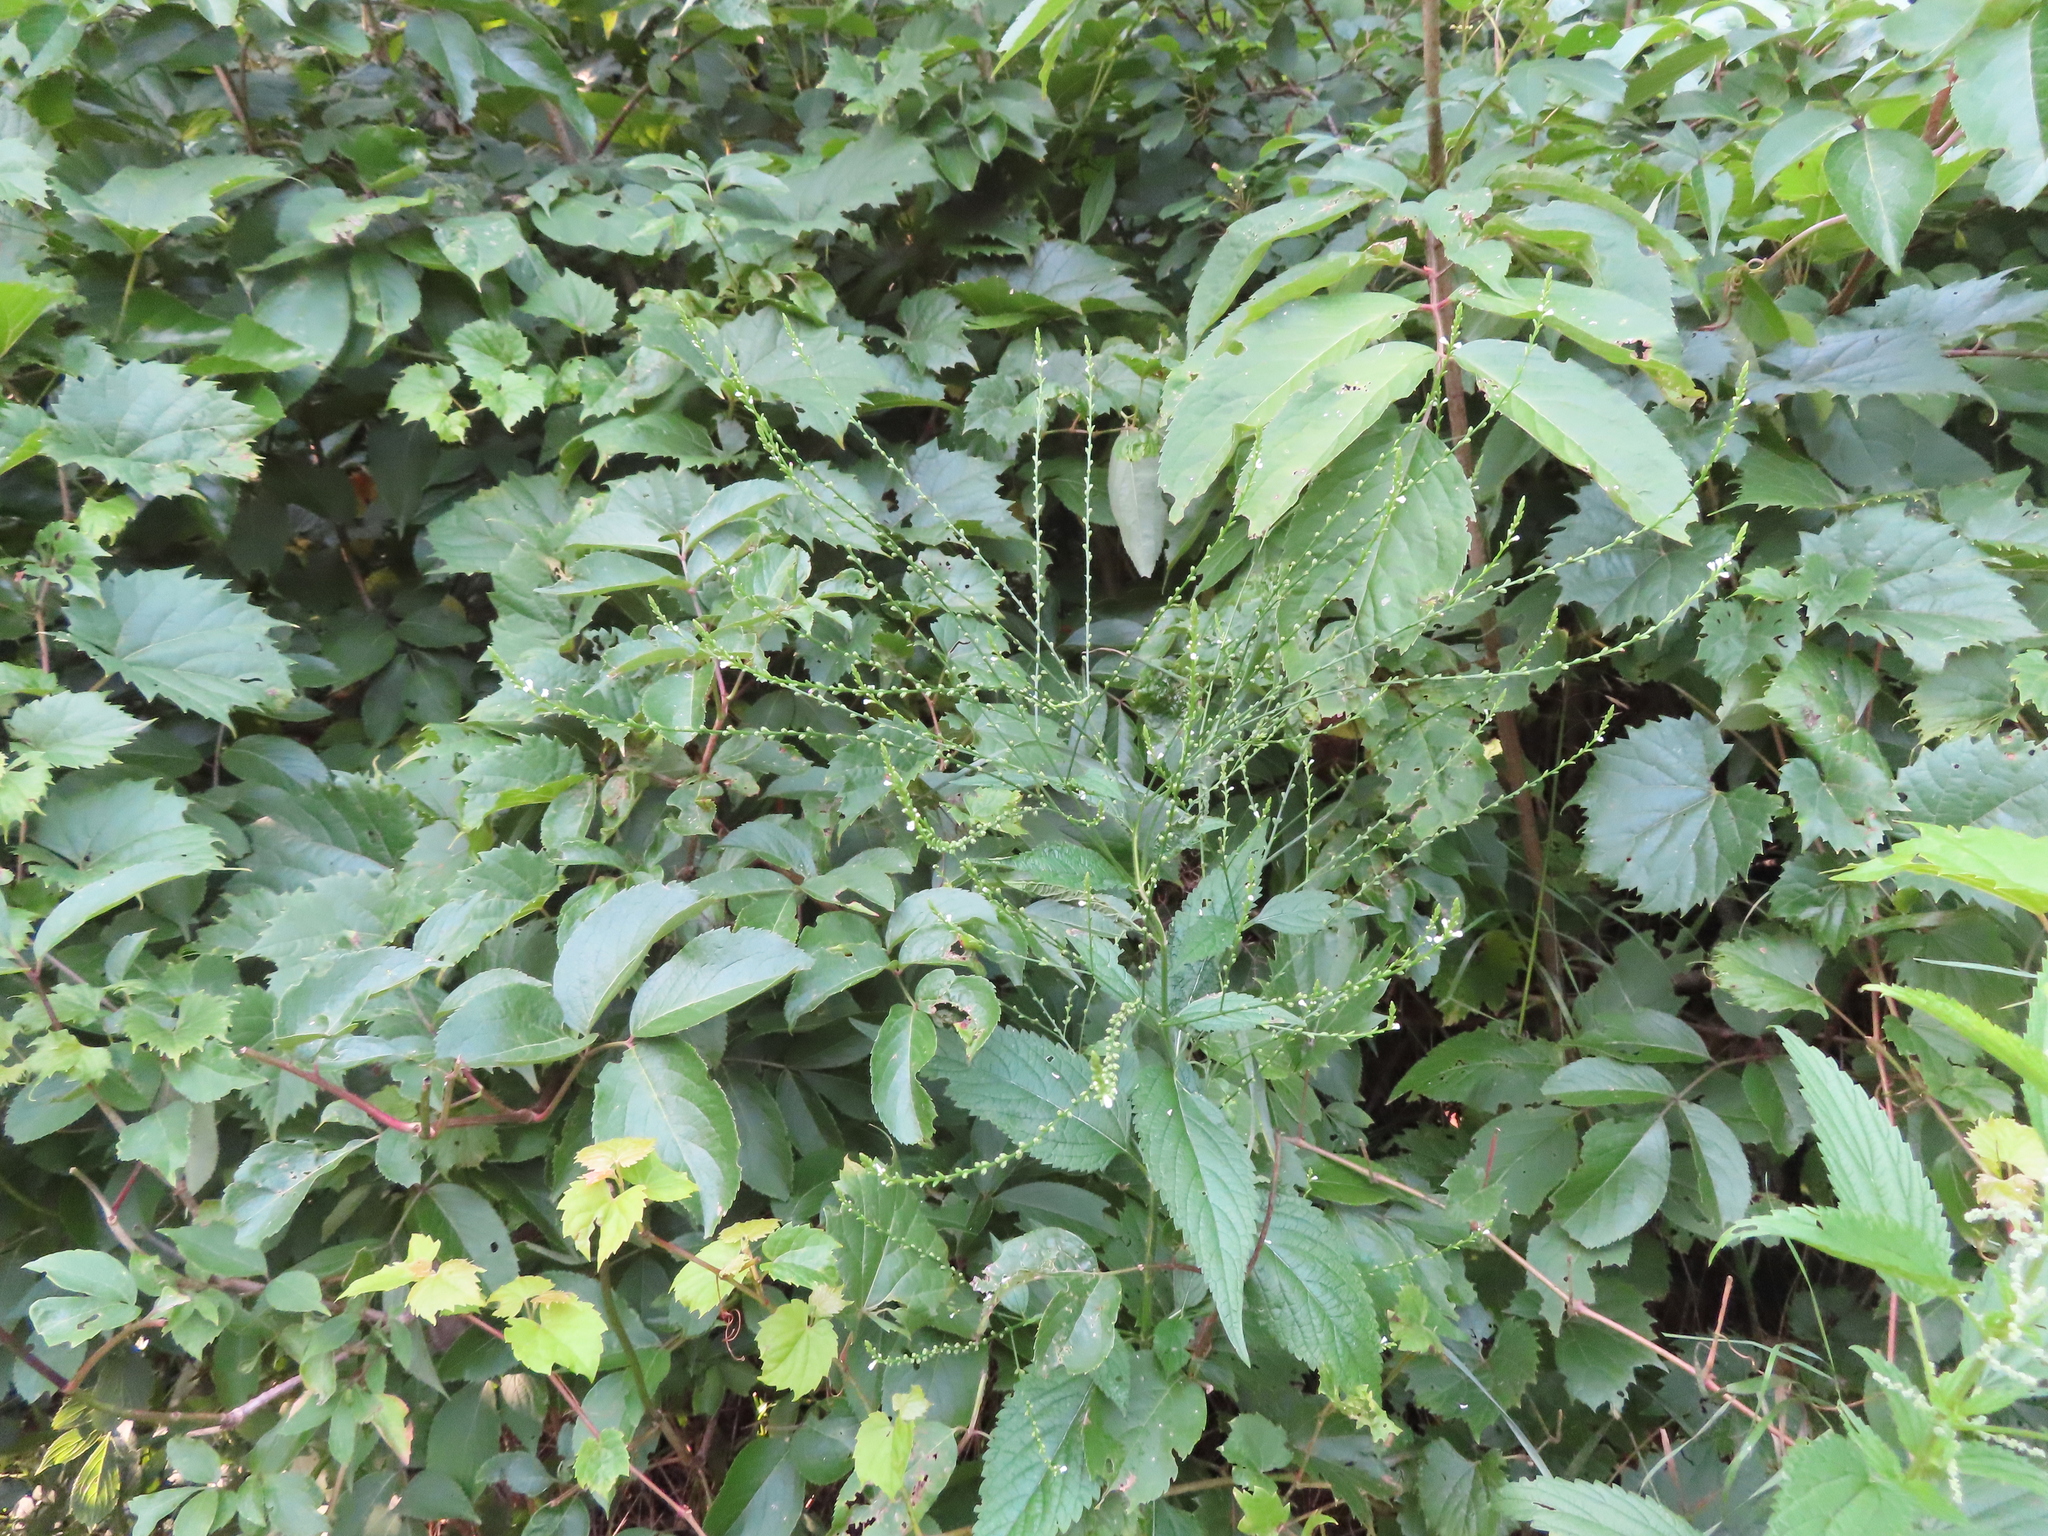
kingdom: Plantae
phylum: Tracheophyta
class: Magnoliopsida
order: Lamiales
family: Verbenaceae
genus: Verbena
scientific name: Verbena urticifolia
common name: Nettle-leaved vervain
